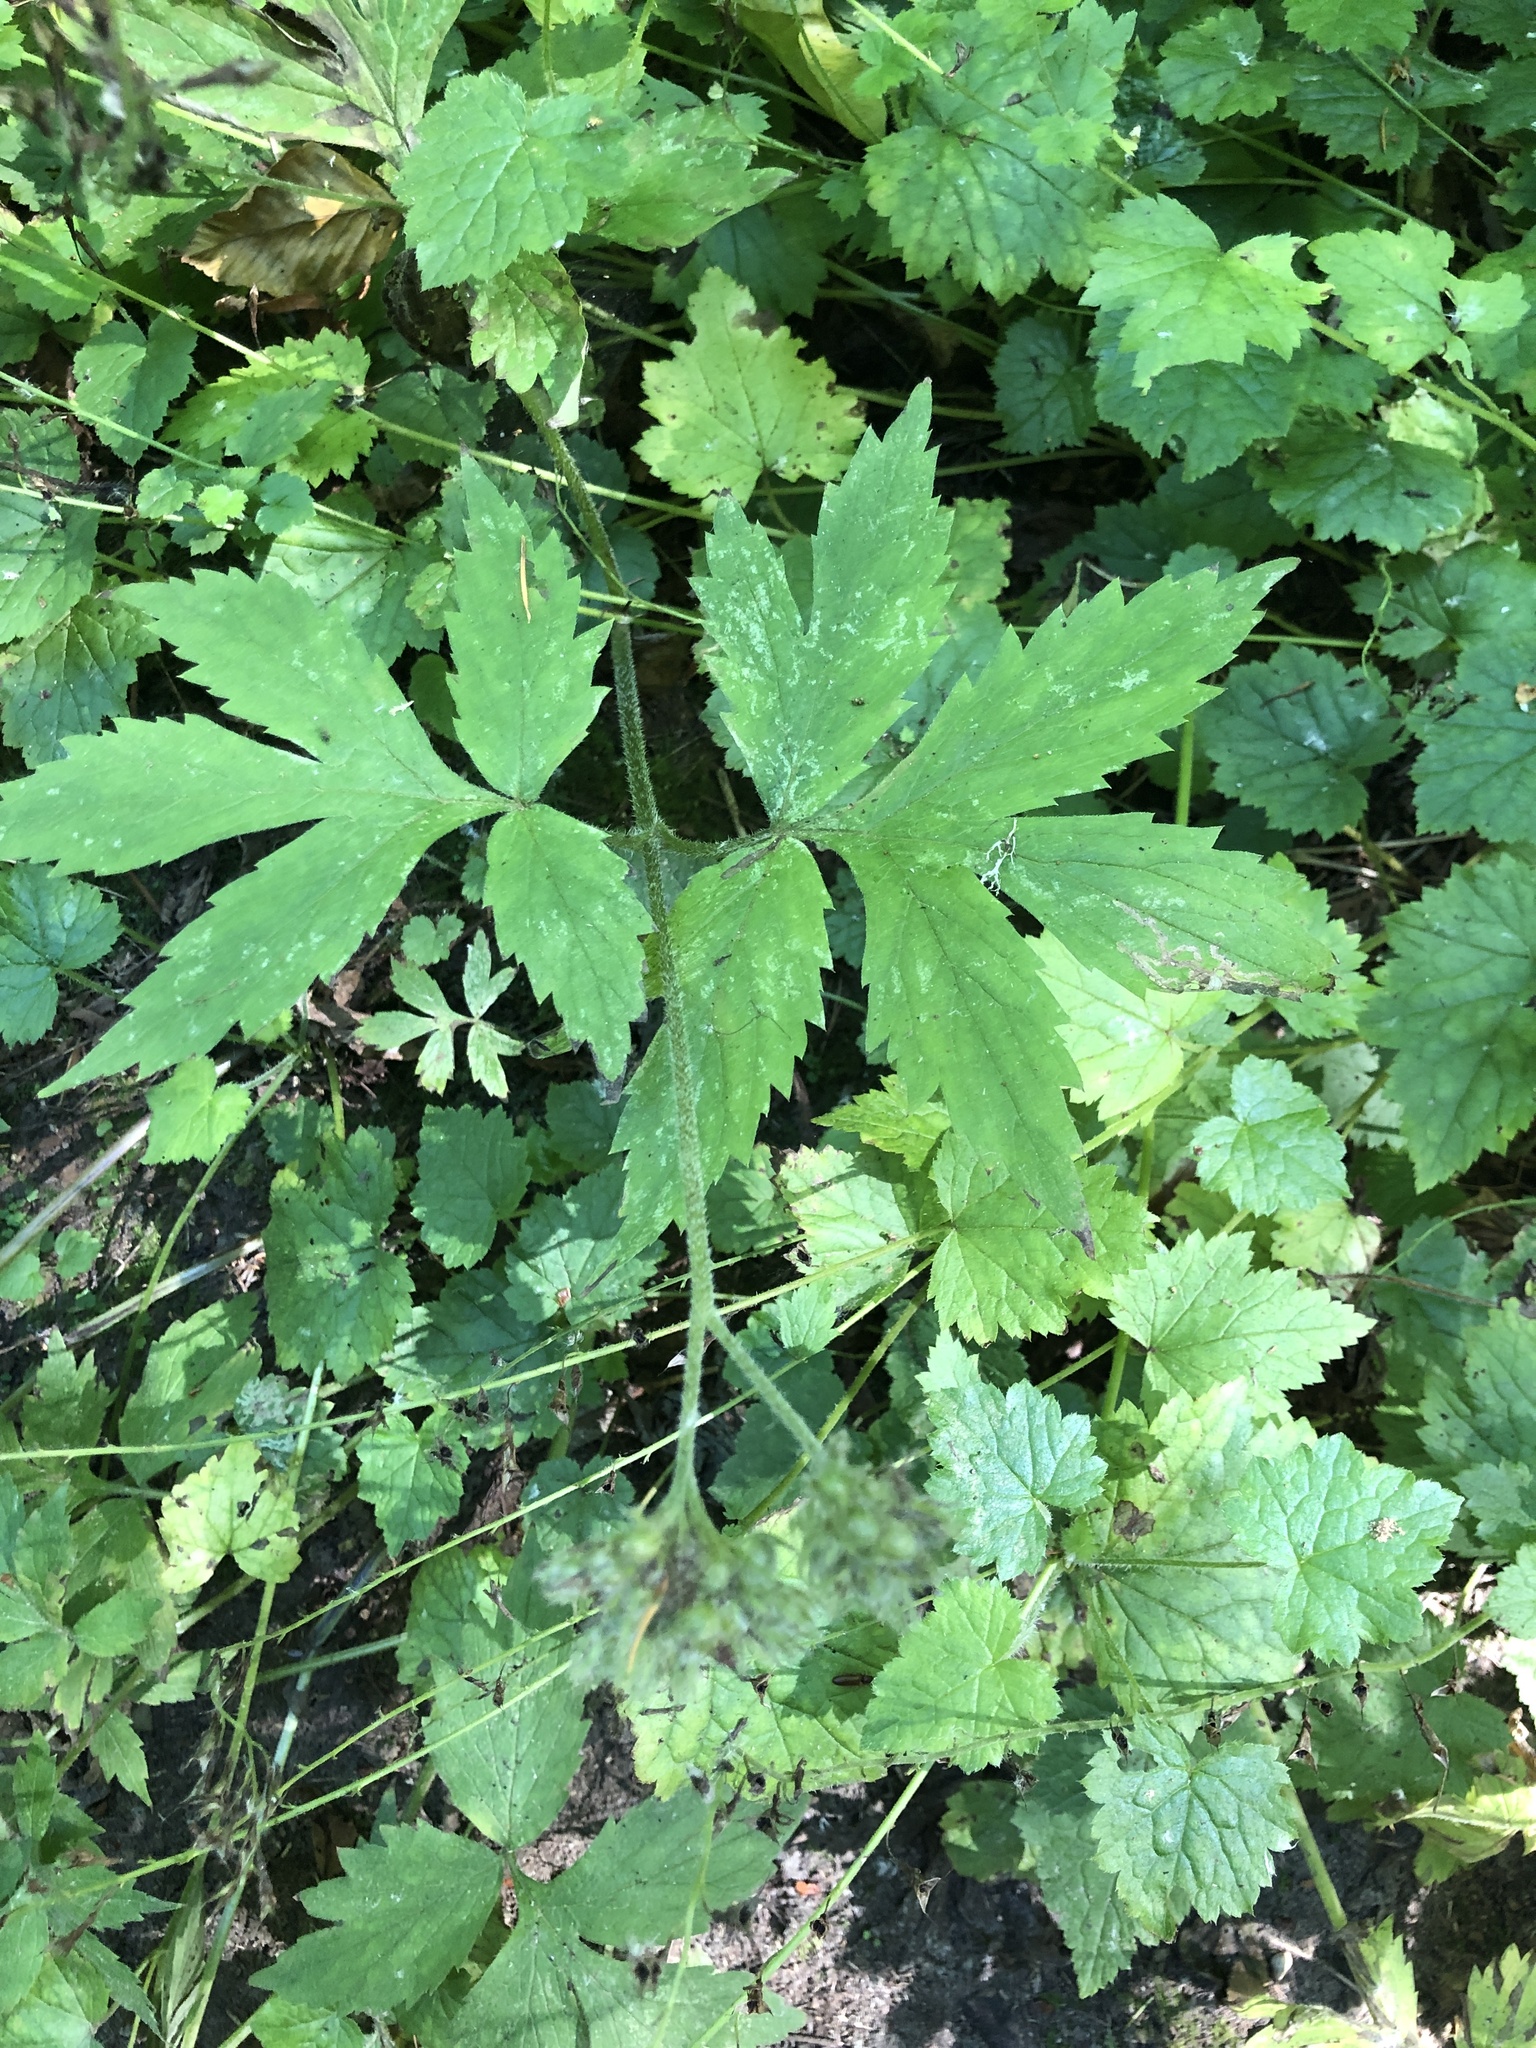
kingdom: Plantae
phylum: Tracheophyta
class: Magnoliopsida
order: Boraginales
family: Hydrophyllaceae
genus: Hydrophyllum
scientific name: Hydrophyllum tenuipes
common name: Pacific waterleaf
